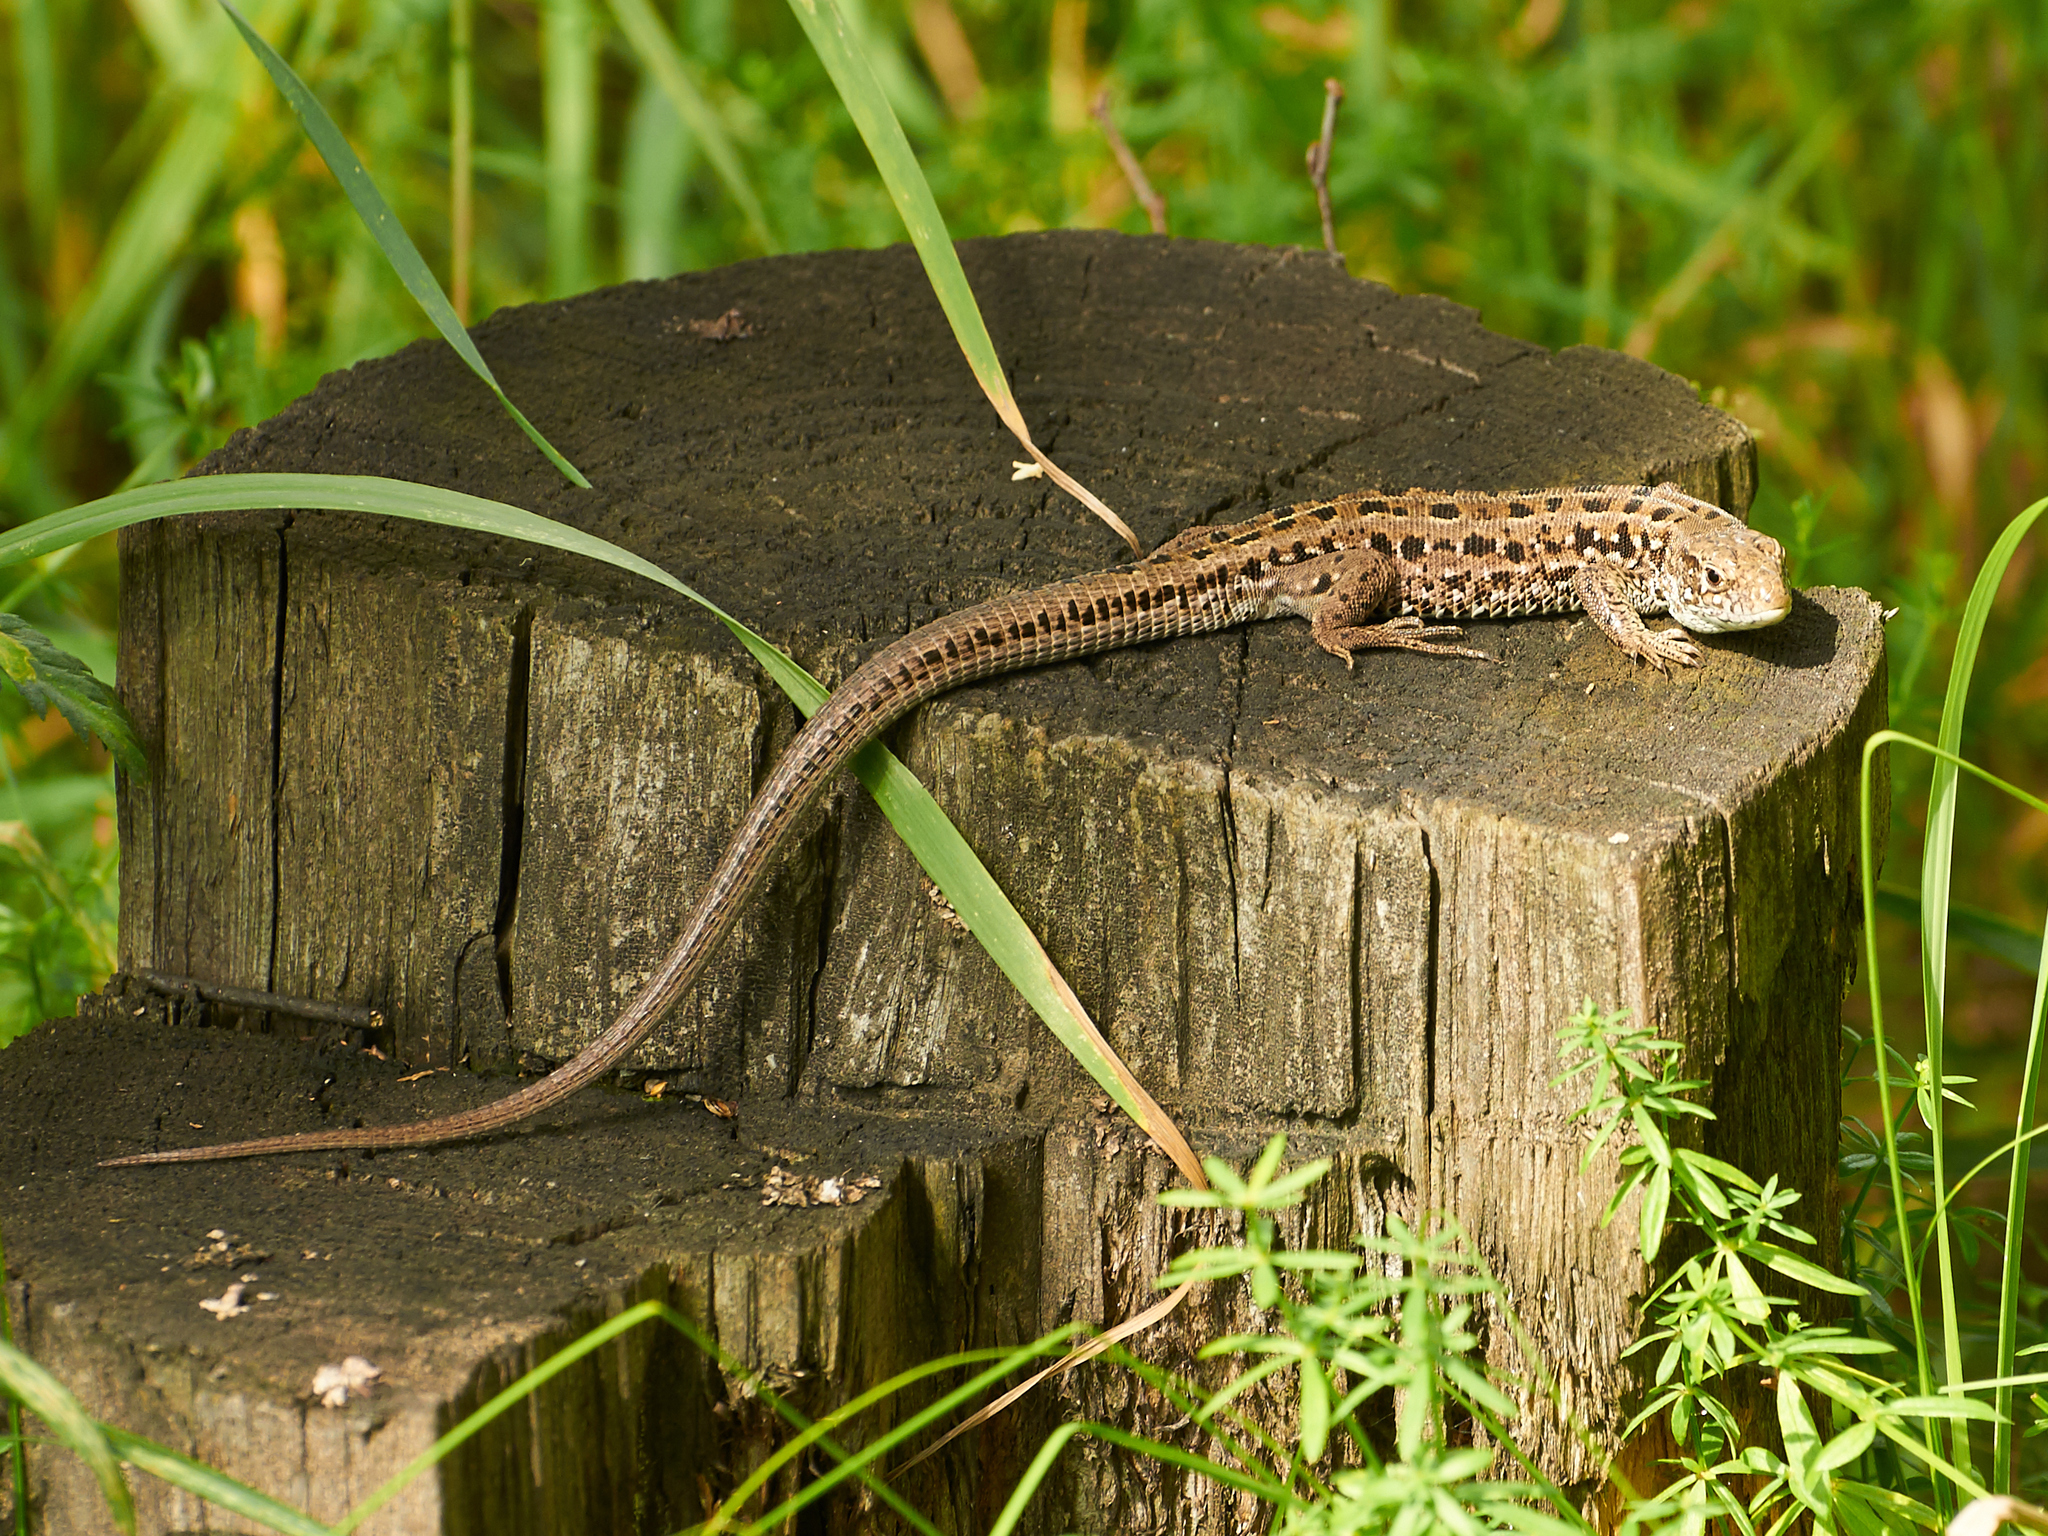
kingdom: Animalia
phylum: Chordata
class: Squamata
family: Lacertidae
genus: Lacerta
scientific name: Lacerta agilis
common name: Sand lizard
